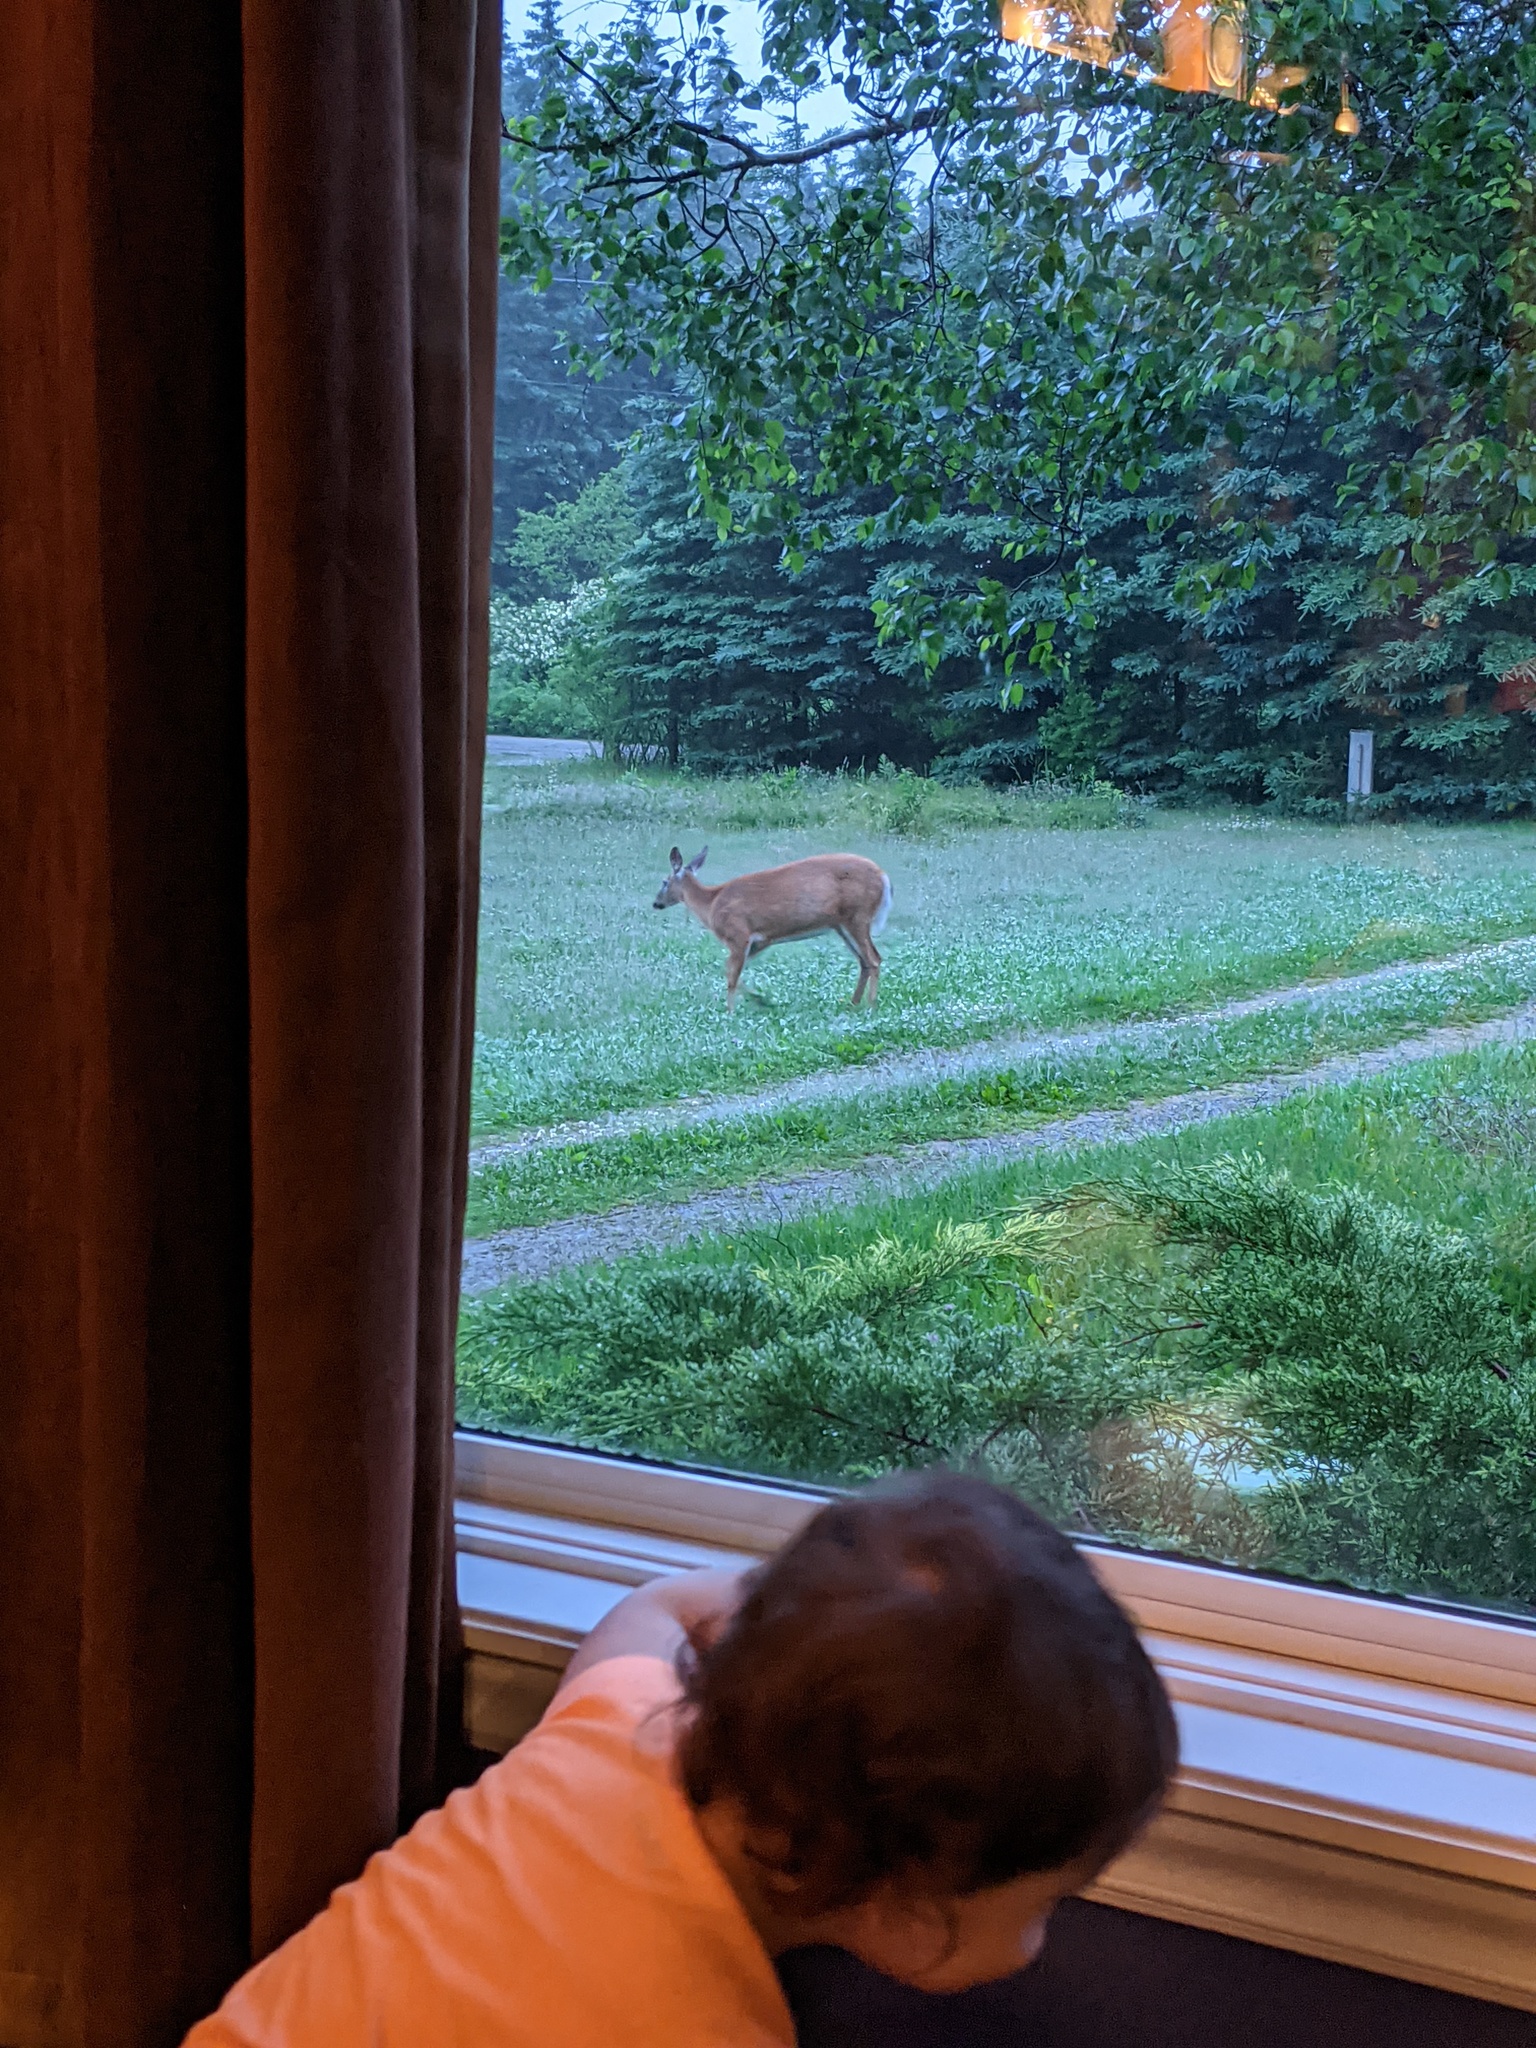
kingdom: Animalia
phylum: Chordata
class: Mammalia
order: Artiodactyla
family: Cervidae
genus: Odocoileus
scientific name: Odocoileus virginianus
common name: White-tailed deer
